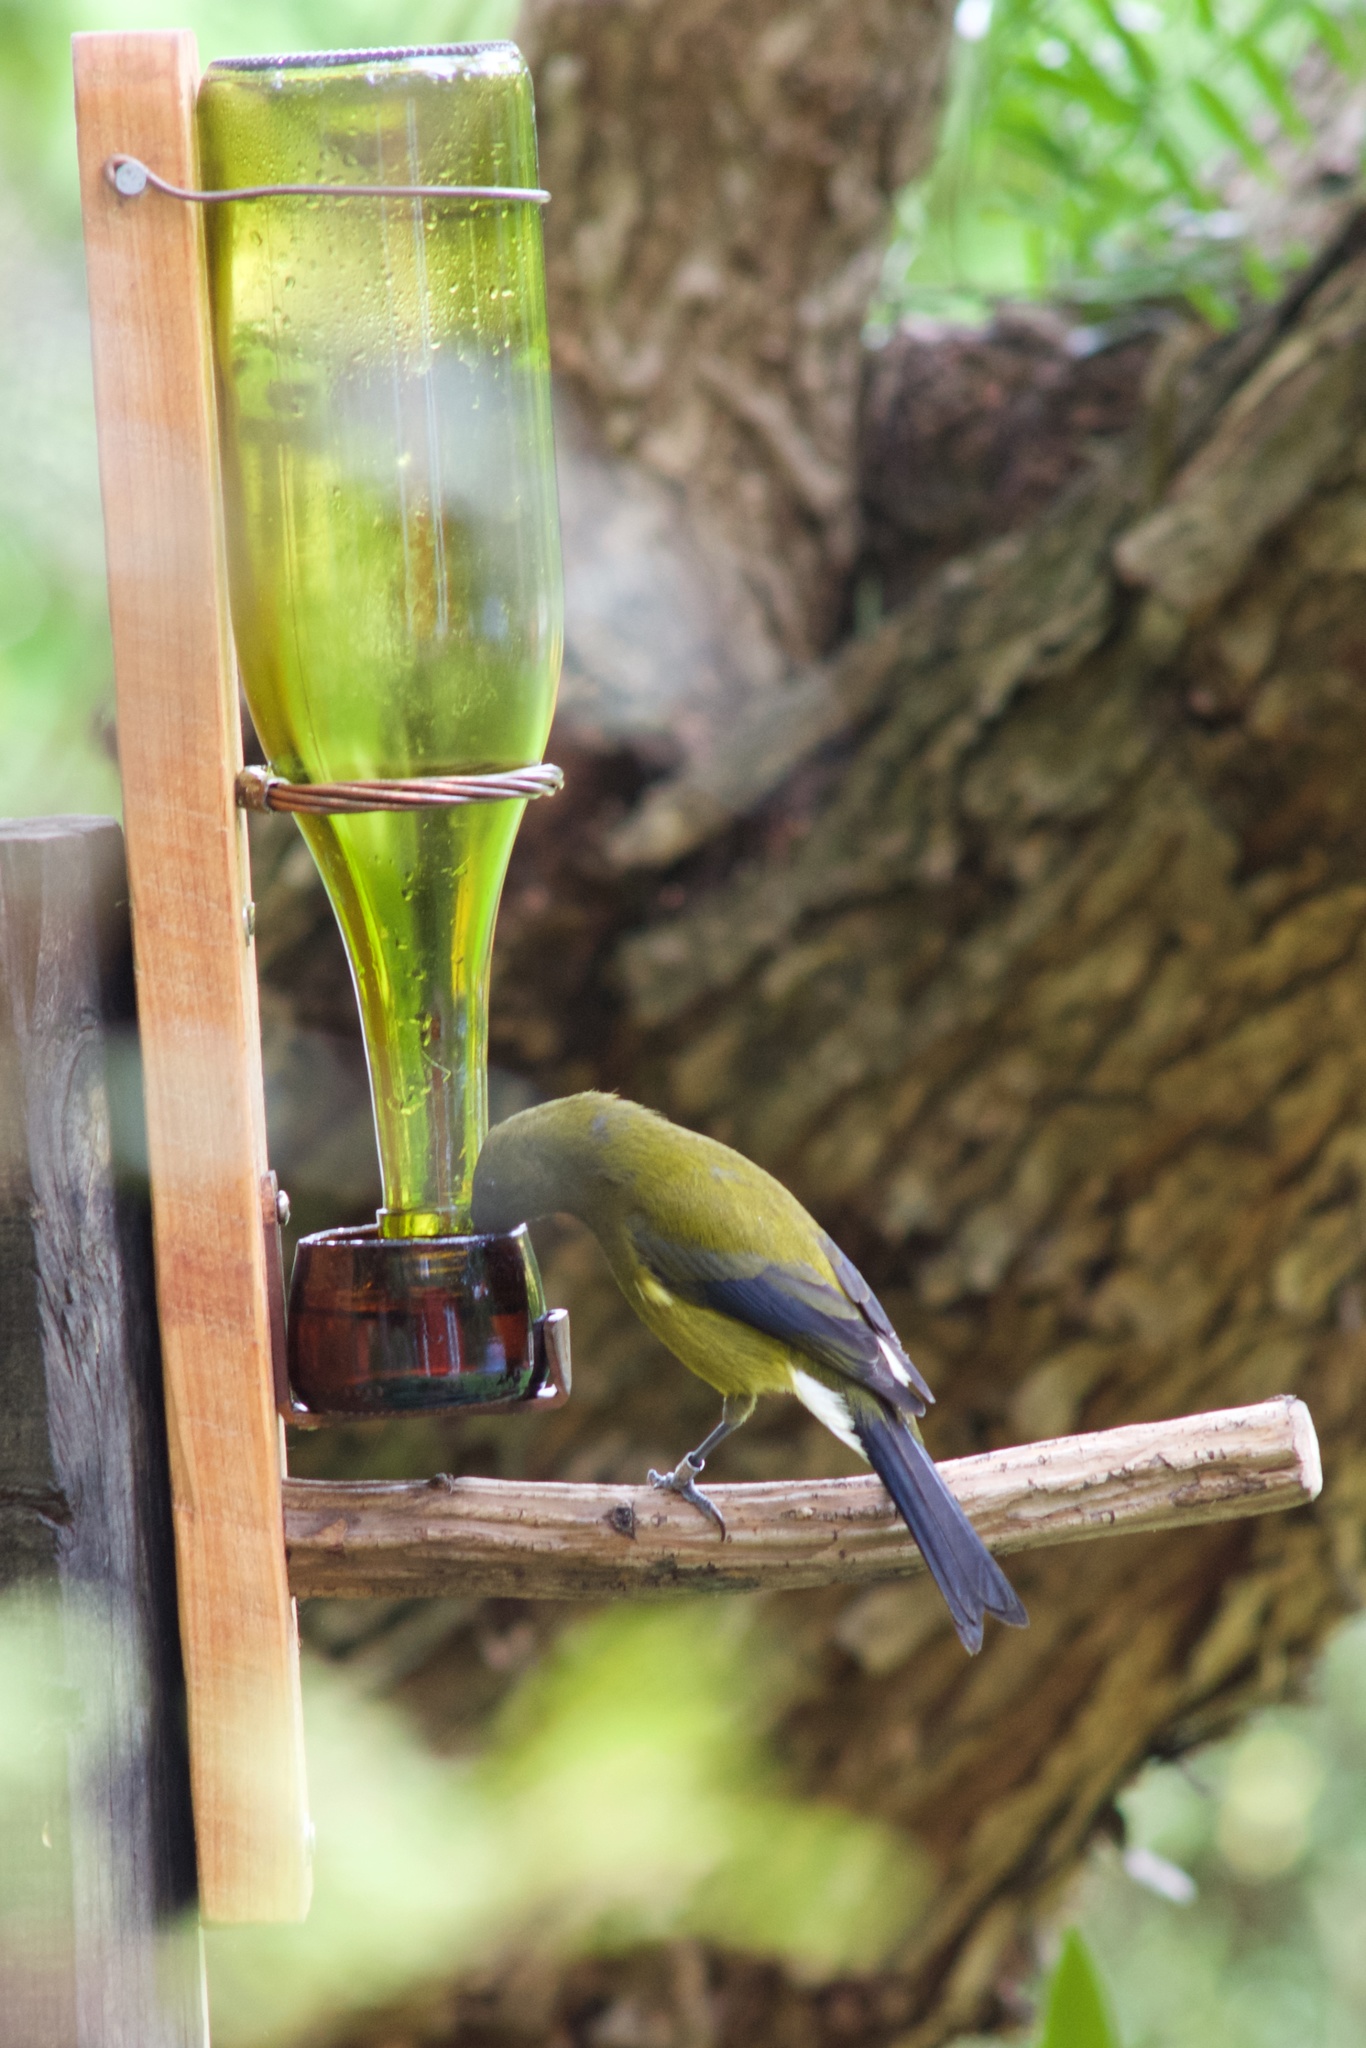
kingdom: Animalia
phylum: Chordata
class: Aves
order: Passeriformes
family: Meliphagidae
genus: Anthornis
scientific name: Anthornis melanura
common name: New zealand bellbird
